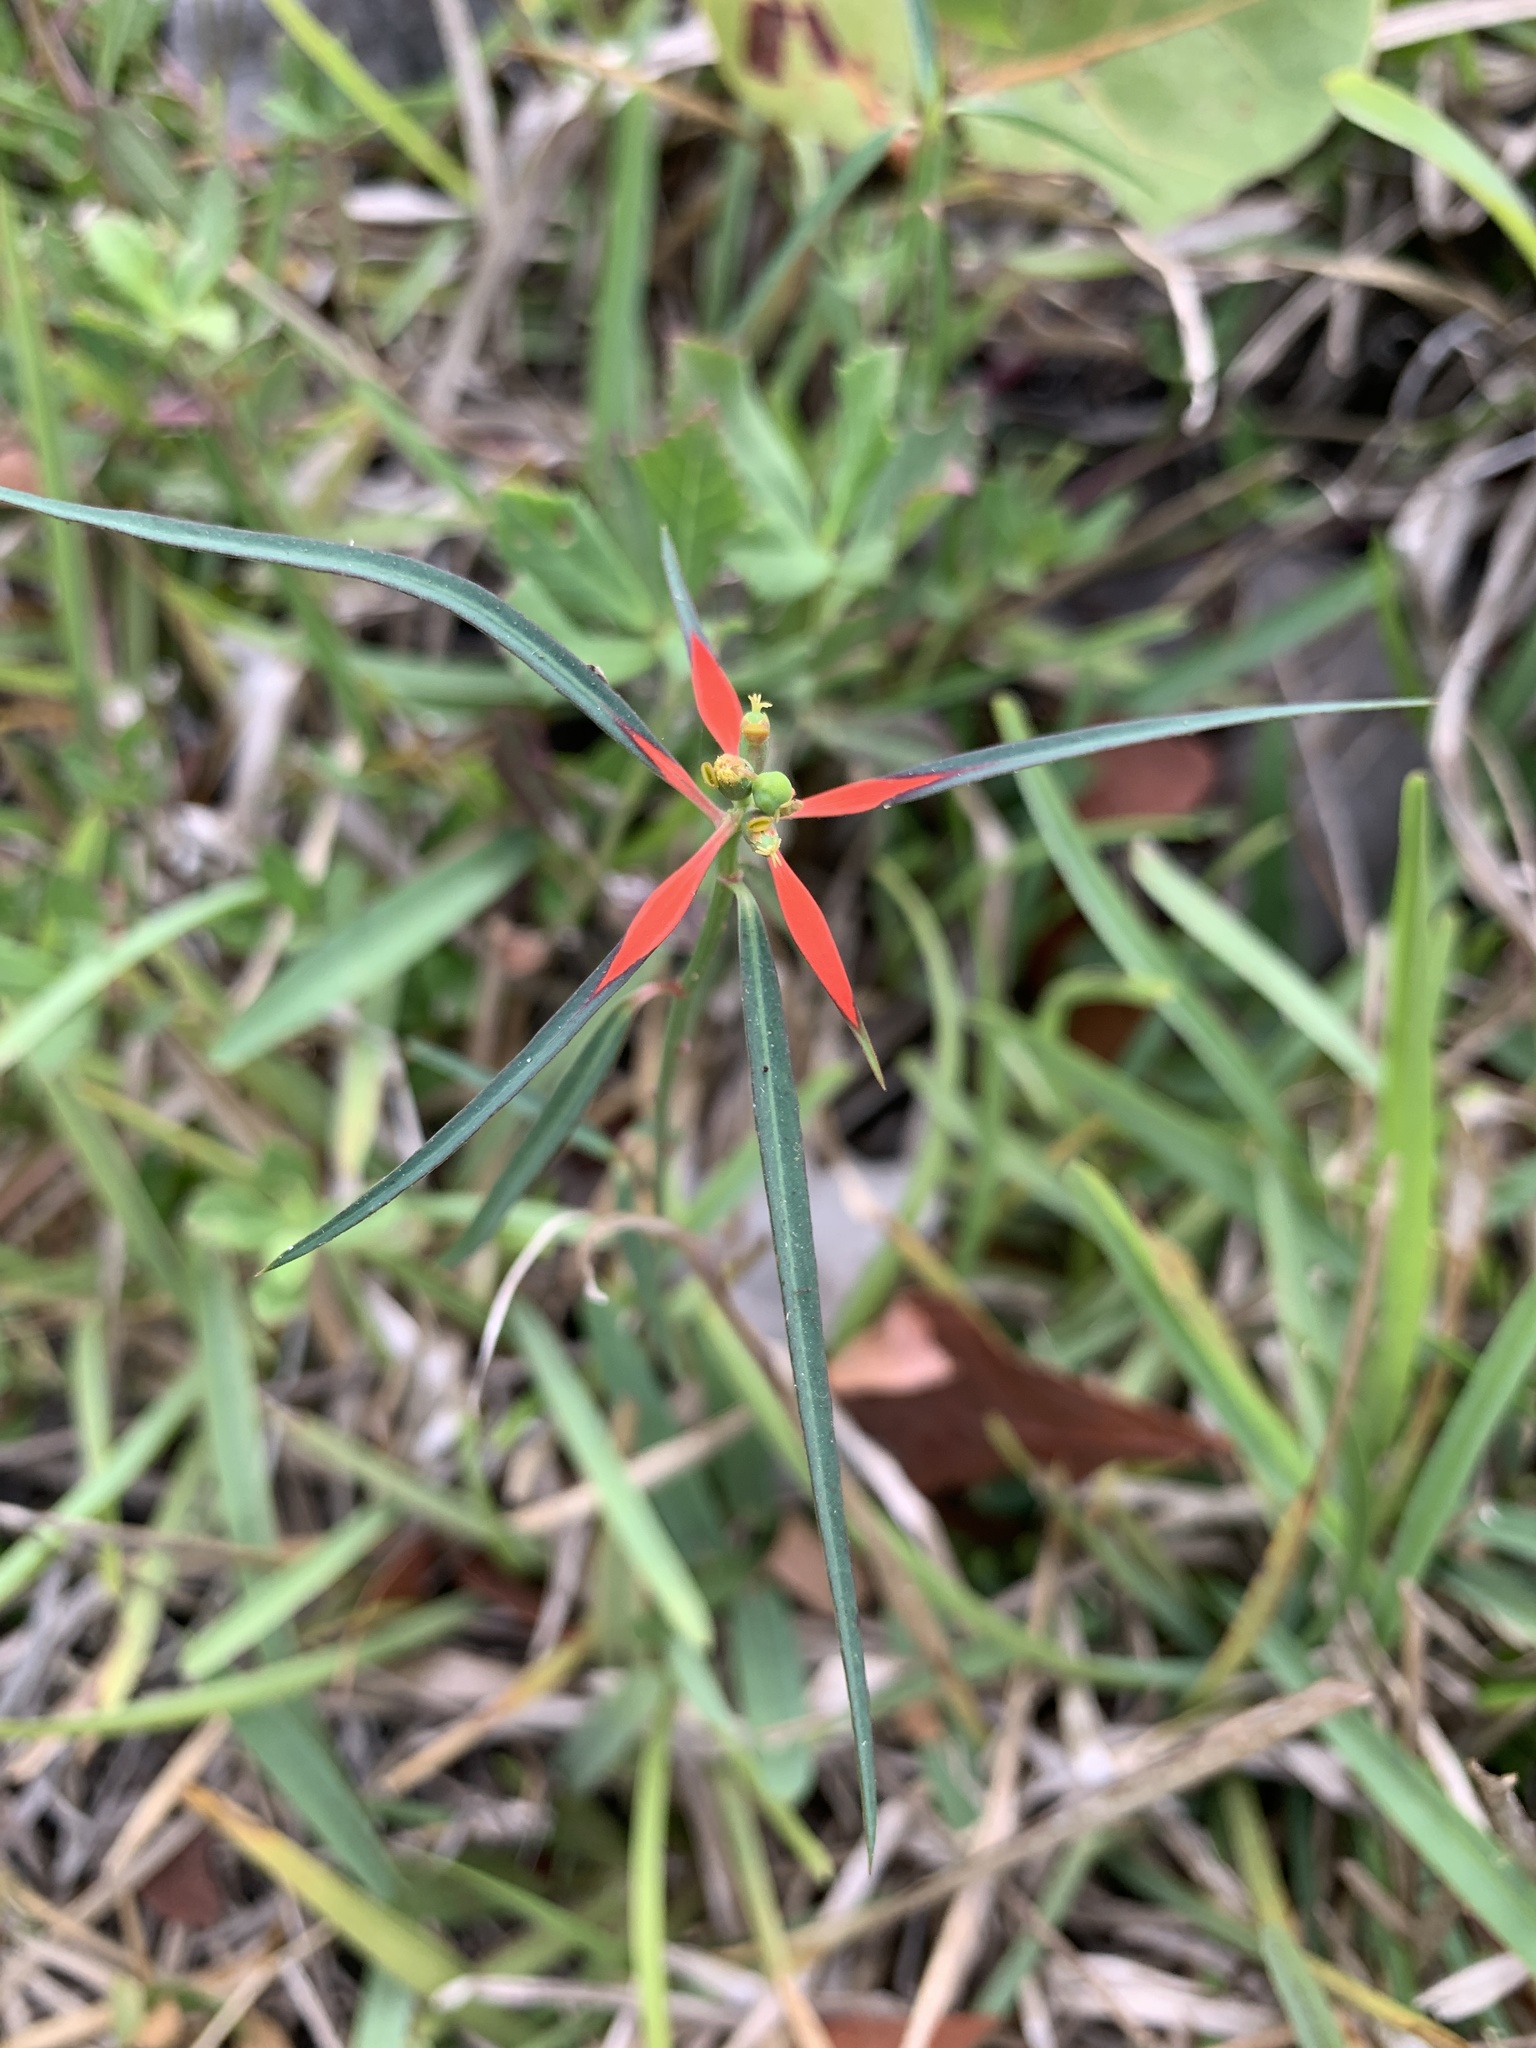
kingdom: Plantae
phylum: Tracheophyta
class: Magnoliopsida
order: Malpighiales
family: Euphorbiaceae
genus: Euphorbia
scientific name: Euphorbia heterophylla
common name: Mexican fireplant
